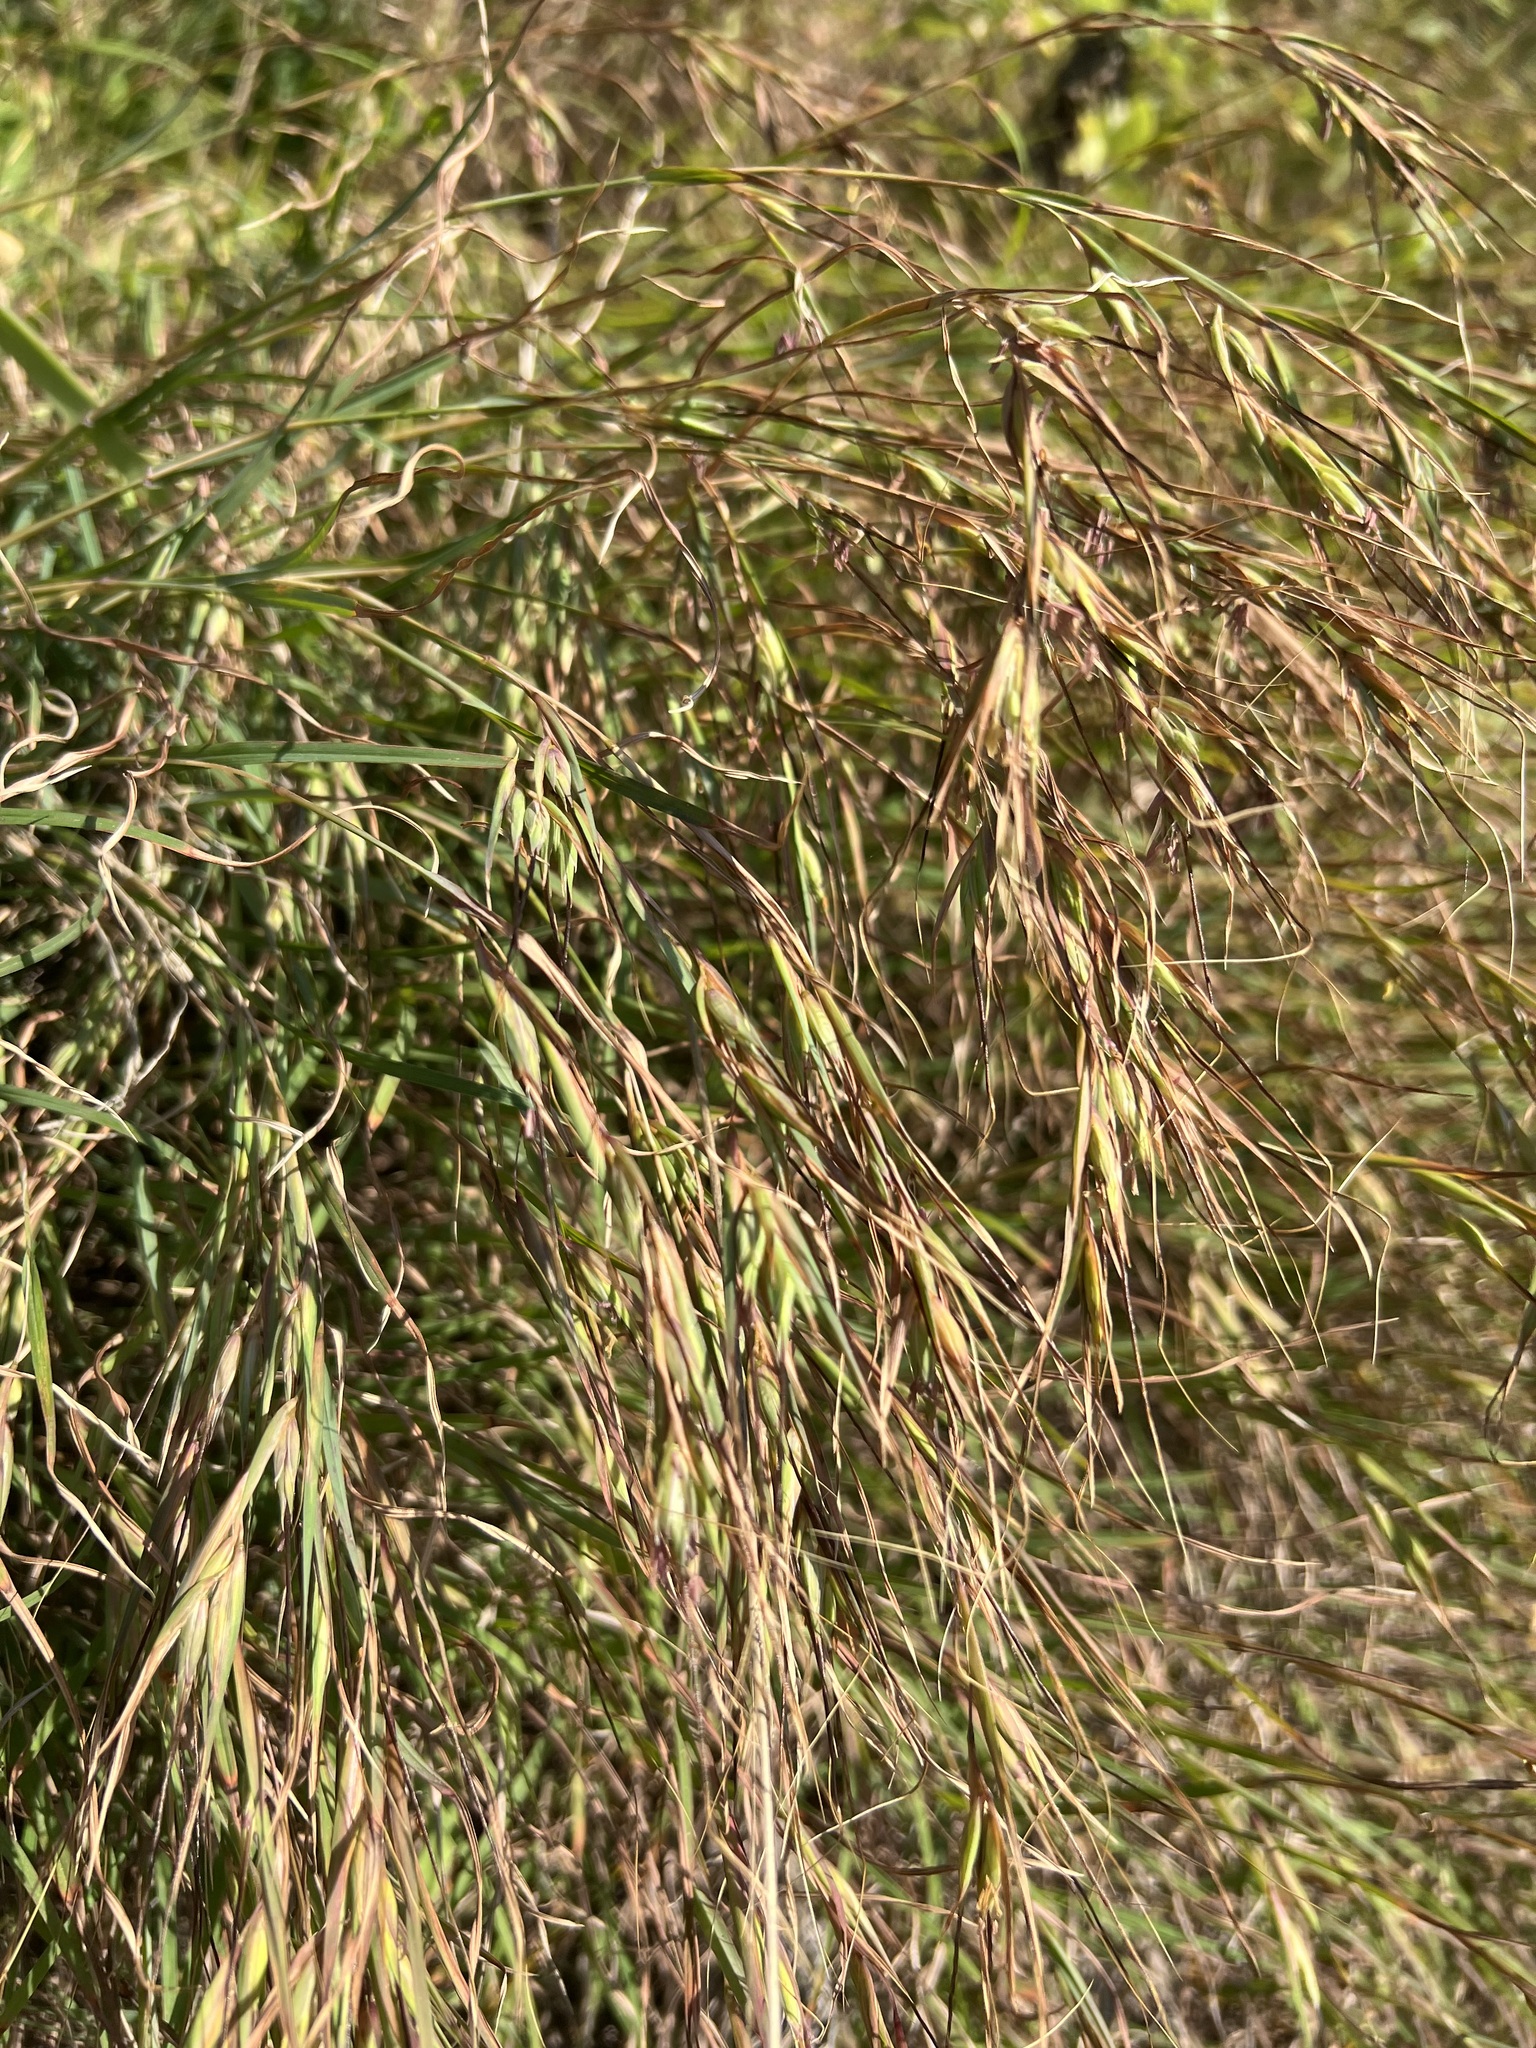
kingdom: Plantae
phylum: Tracheophyta
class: Liliopsida
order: Poales
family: Poaceae
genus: Themeda
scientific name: Themeda triandra
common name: Kangaroo grass
